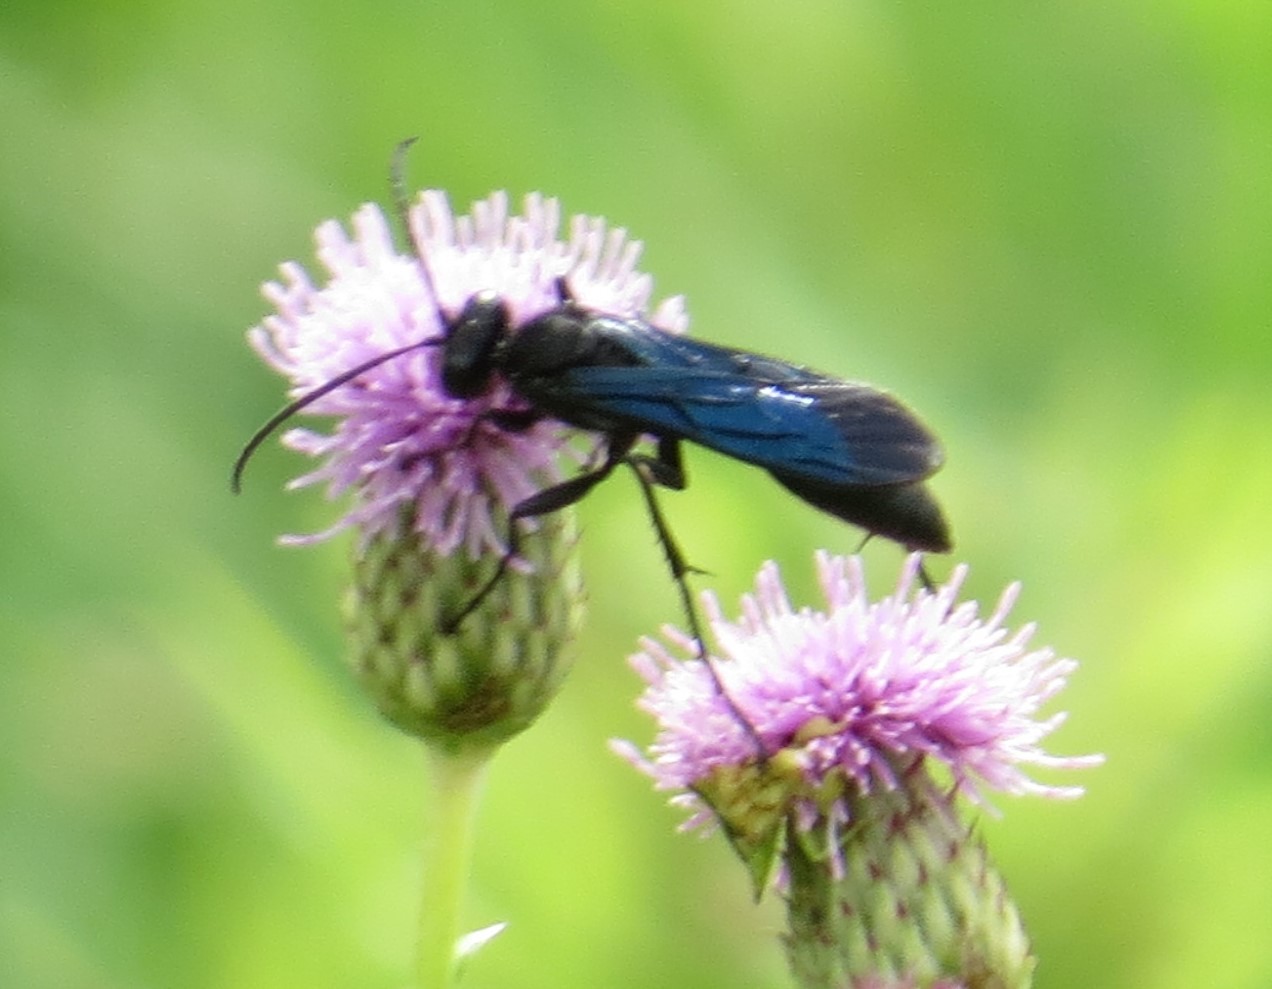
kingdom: Animalia
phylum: Arthropoda
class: Insecta
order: Hymenoptera
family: Sphecidae
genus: Sphex
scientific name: Sphex pensylvanicus
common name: Great black digger wasp
